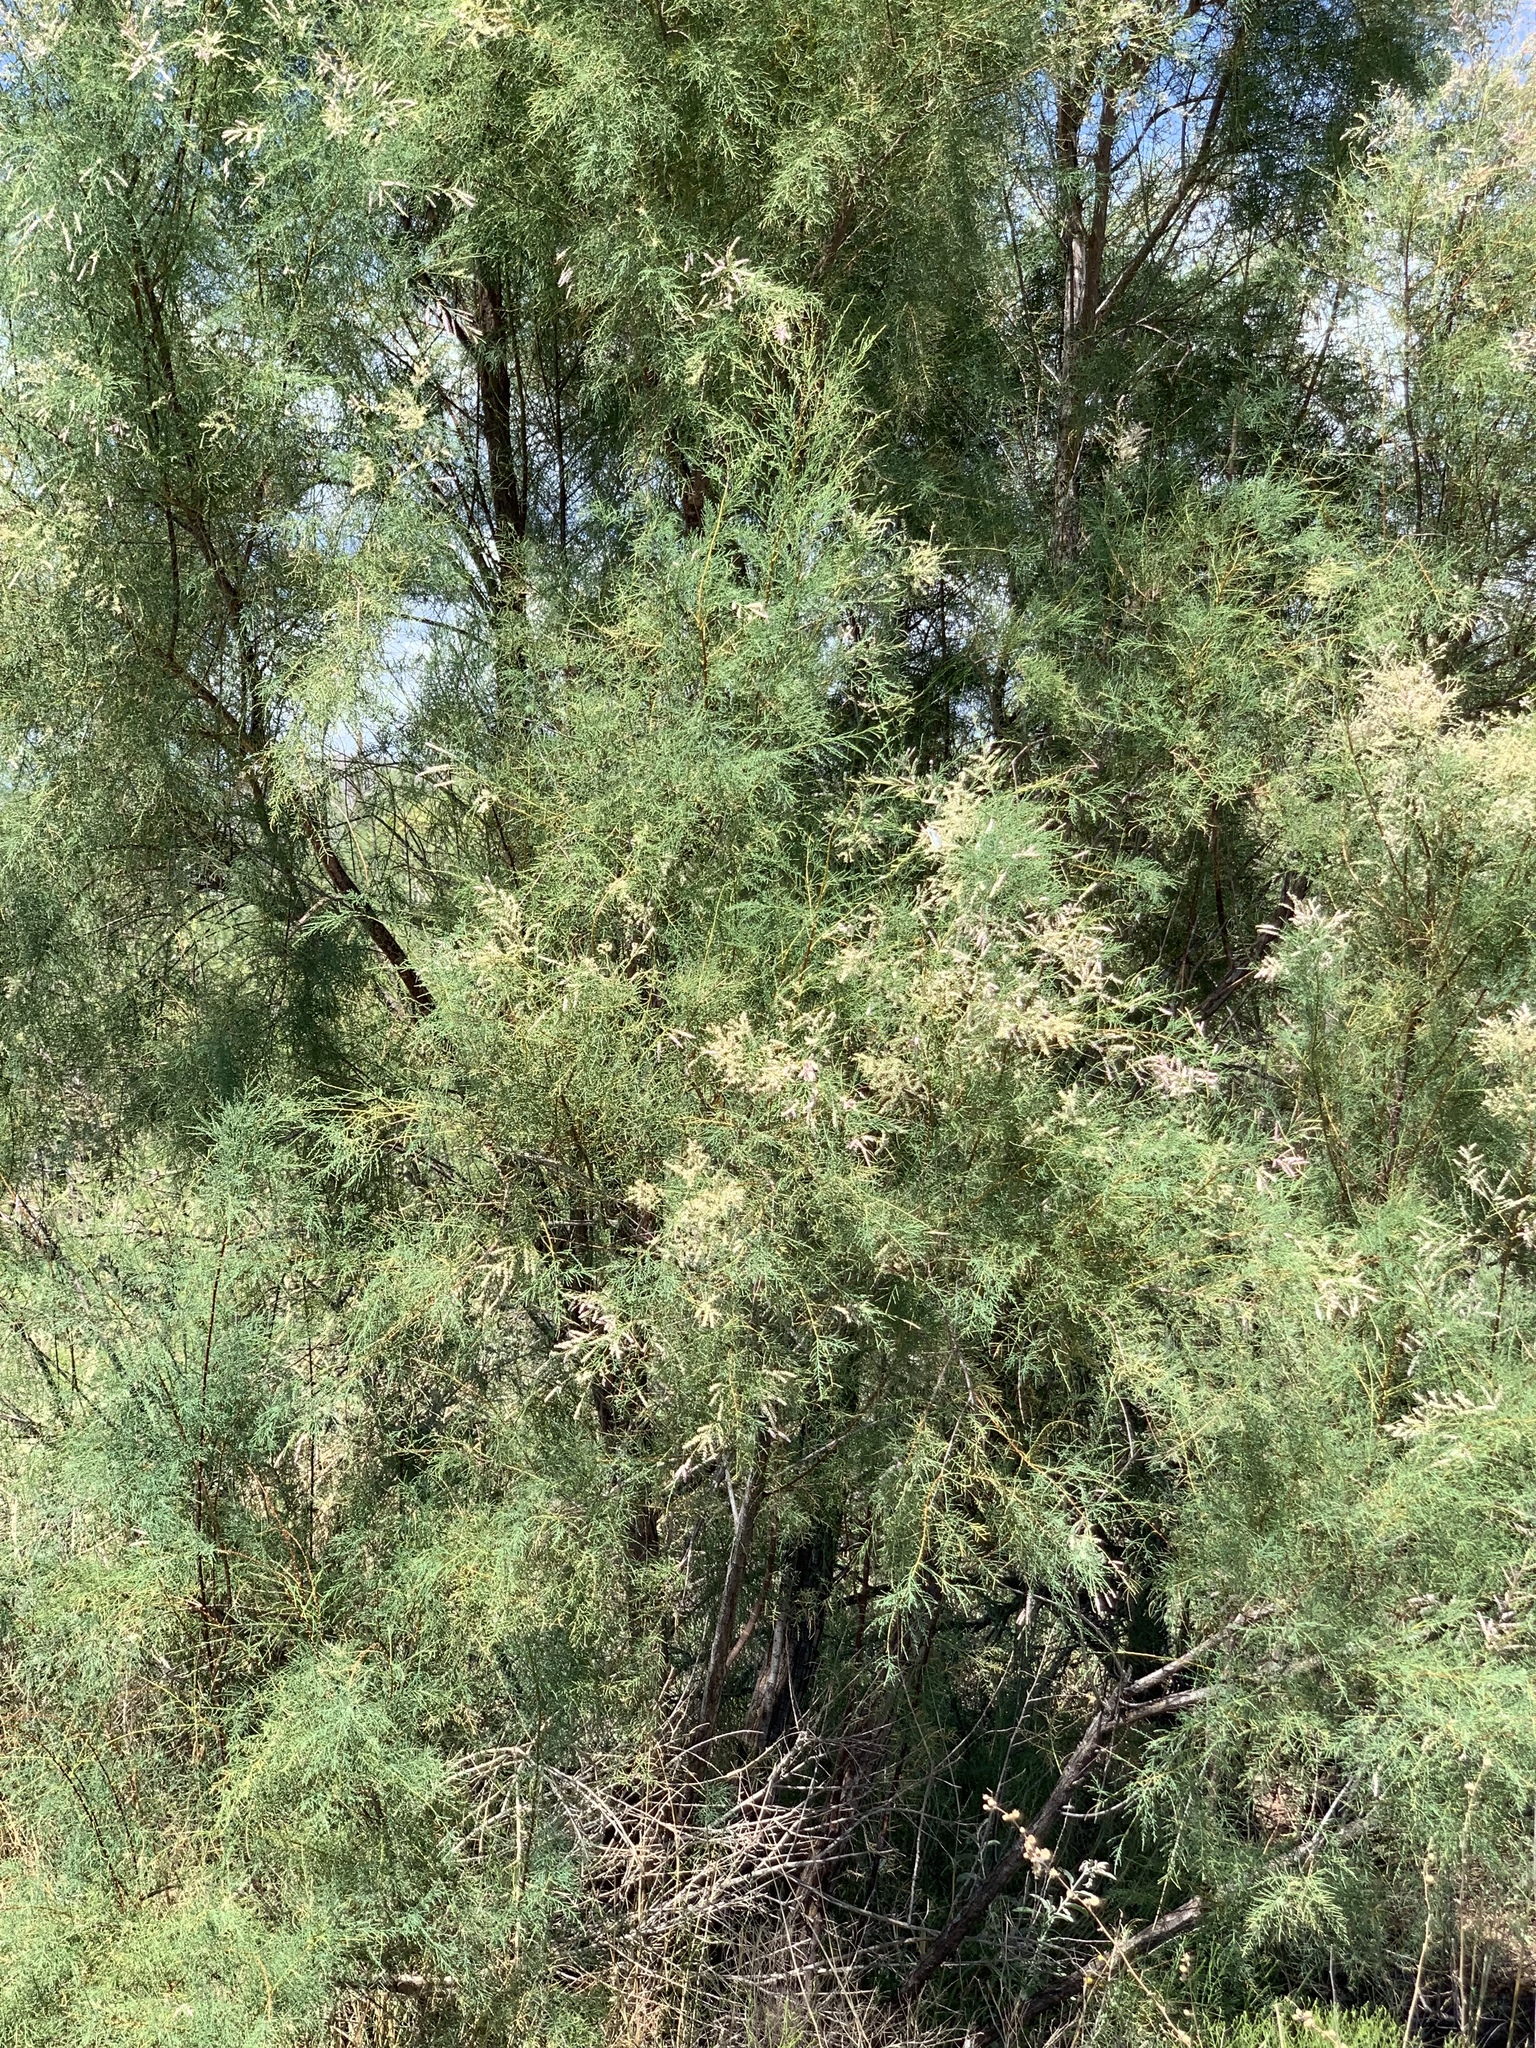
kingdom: Plantae
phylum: Tracheophyta
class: Magnoliopsida
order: Caryophyllales
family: Tamaricaceae
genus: Tamarix
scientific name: Tamarix ramosissima
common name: Pink tamarisk
